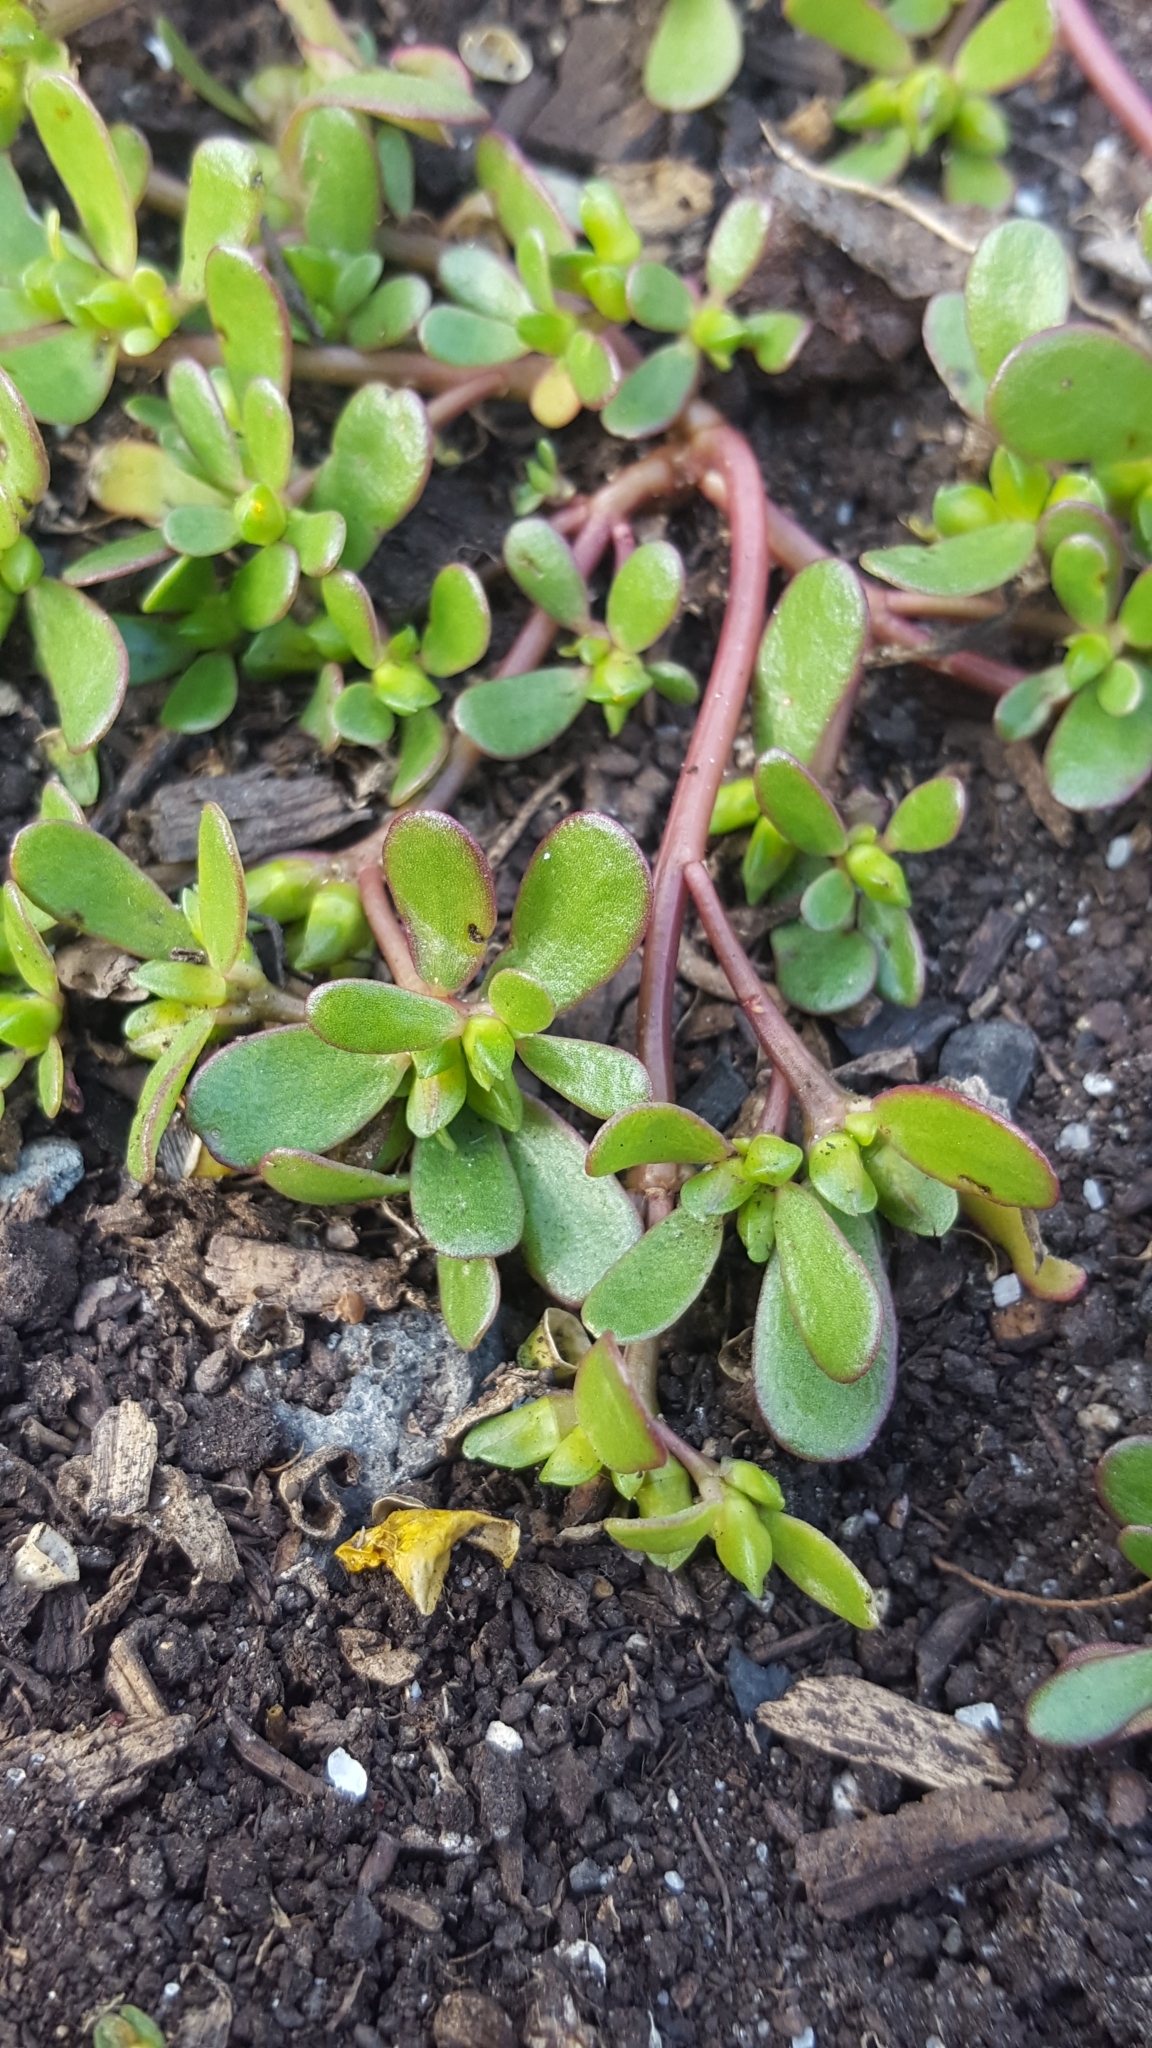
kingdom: Plantae
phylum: Tracheophyta
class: Magnoliopsida
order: Caryophyllales
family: Portulacaceae
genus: Portulaca
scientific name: Portulaca oleracea
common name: Common purslane
